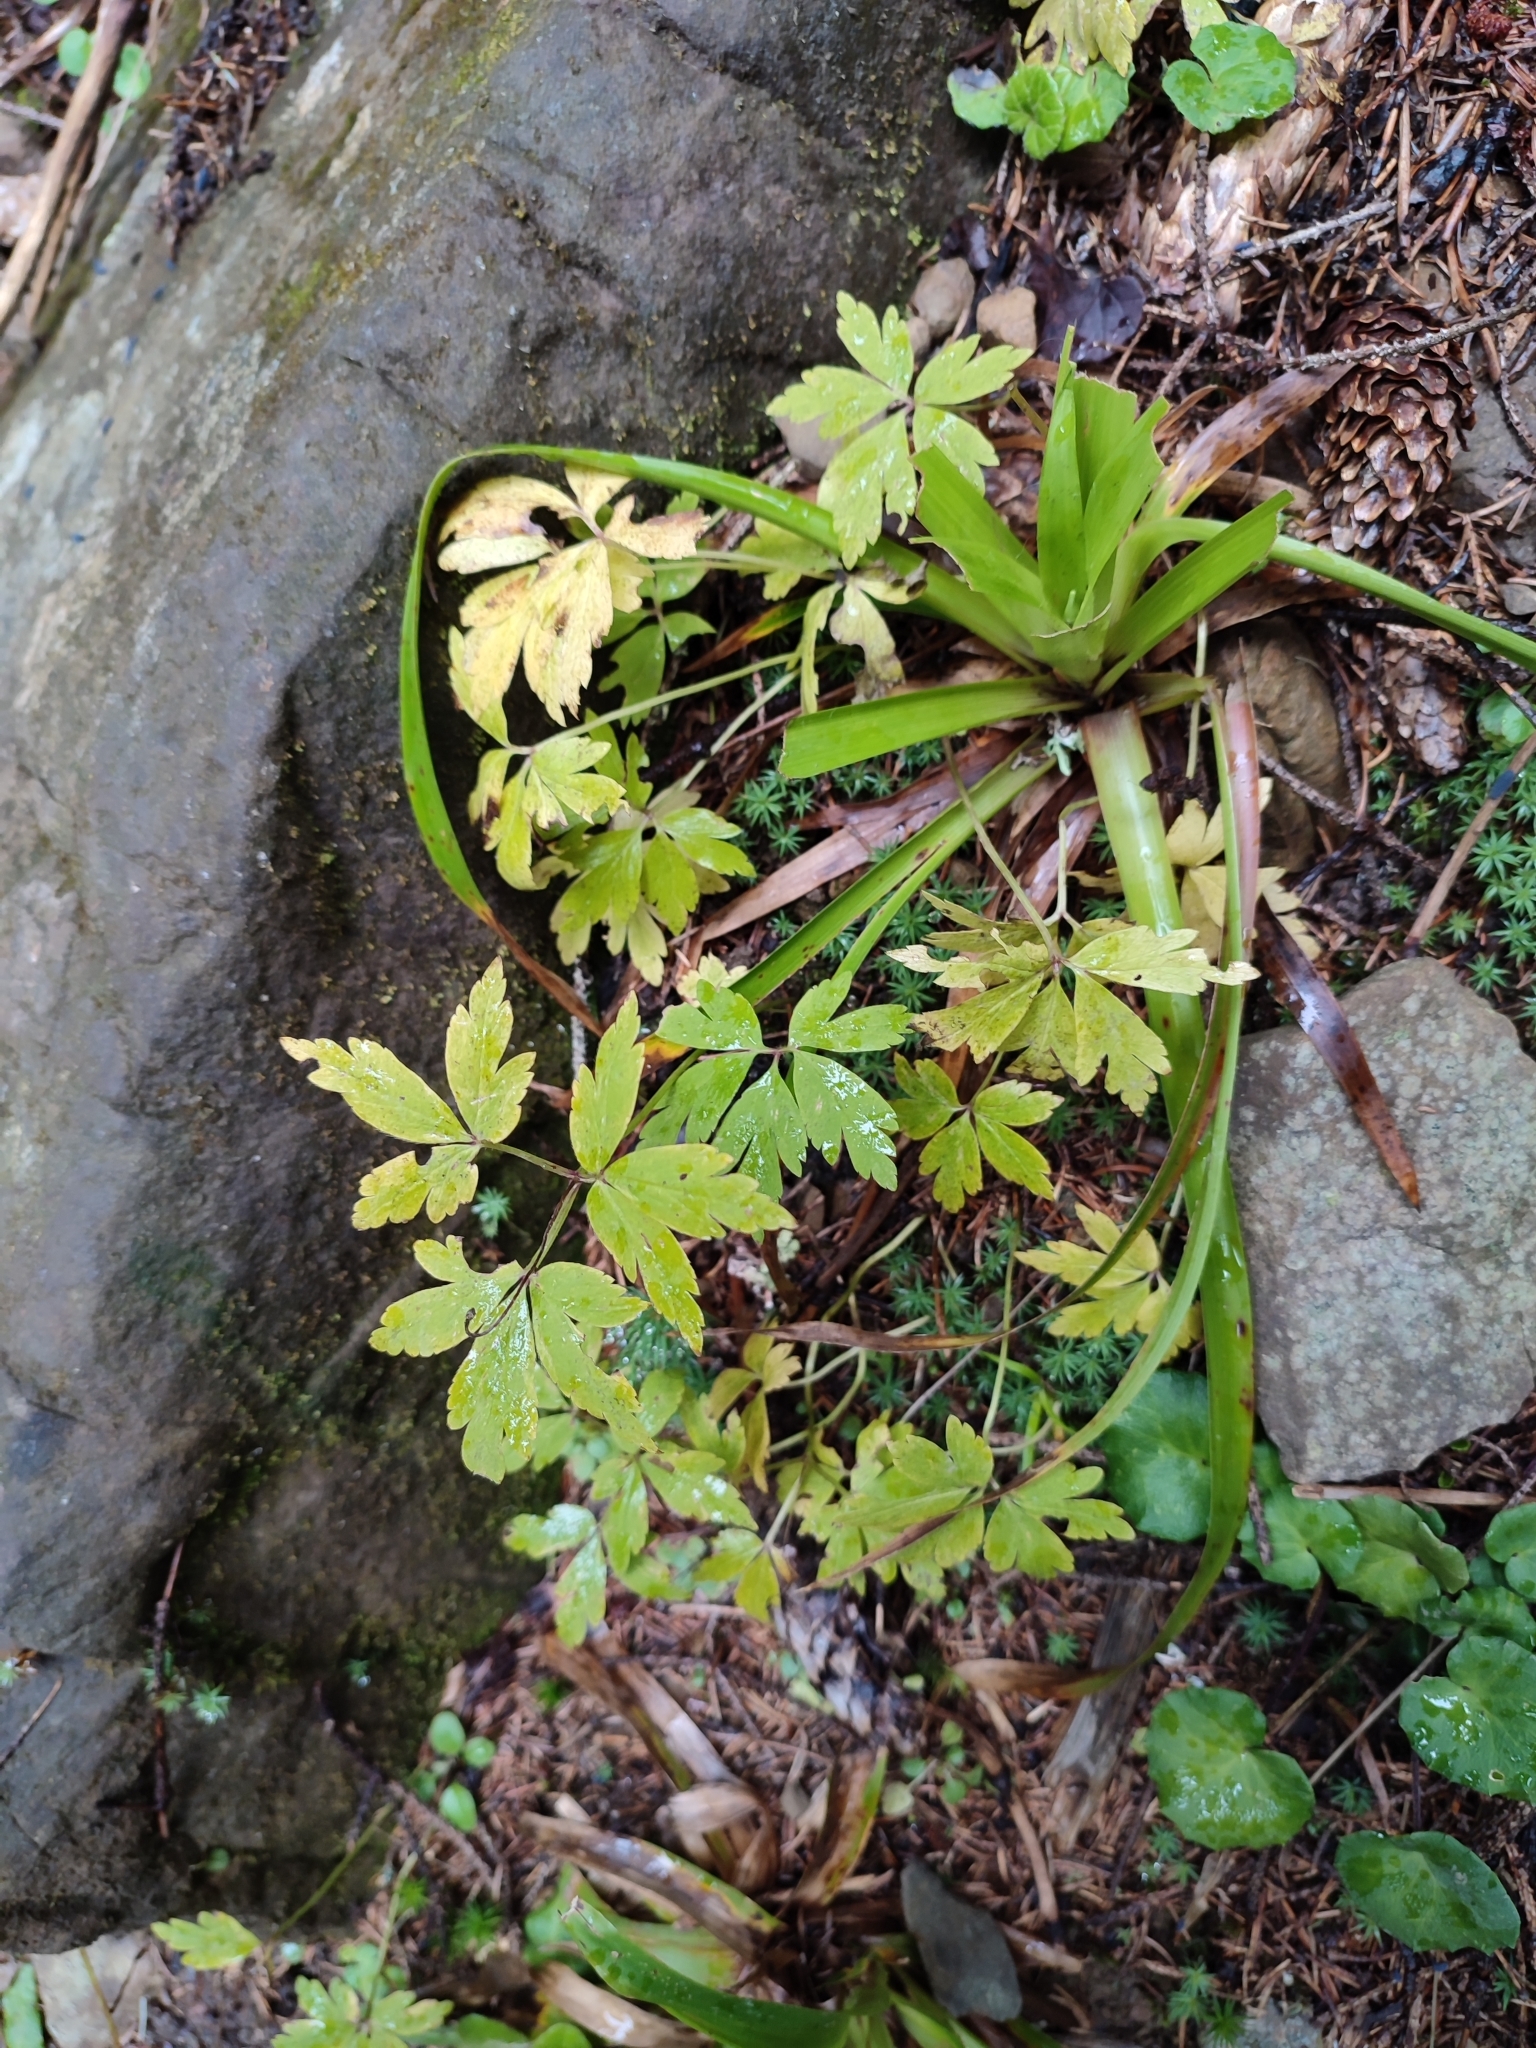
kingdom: Plantae
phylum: Tracheophyta
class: Magnoliopsida
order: Ranunculales
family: Ranunculaceae
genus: Anemone
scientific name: Anemone nemorosa
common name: Wood anemone
